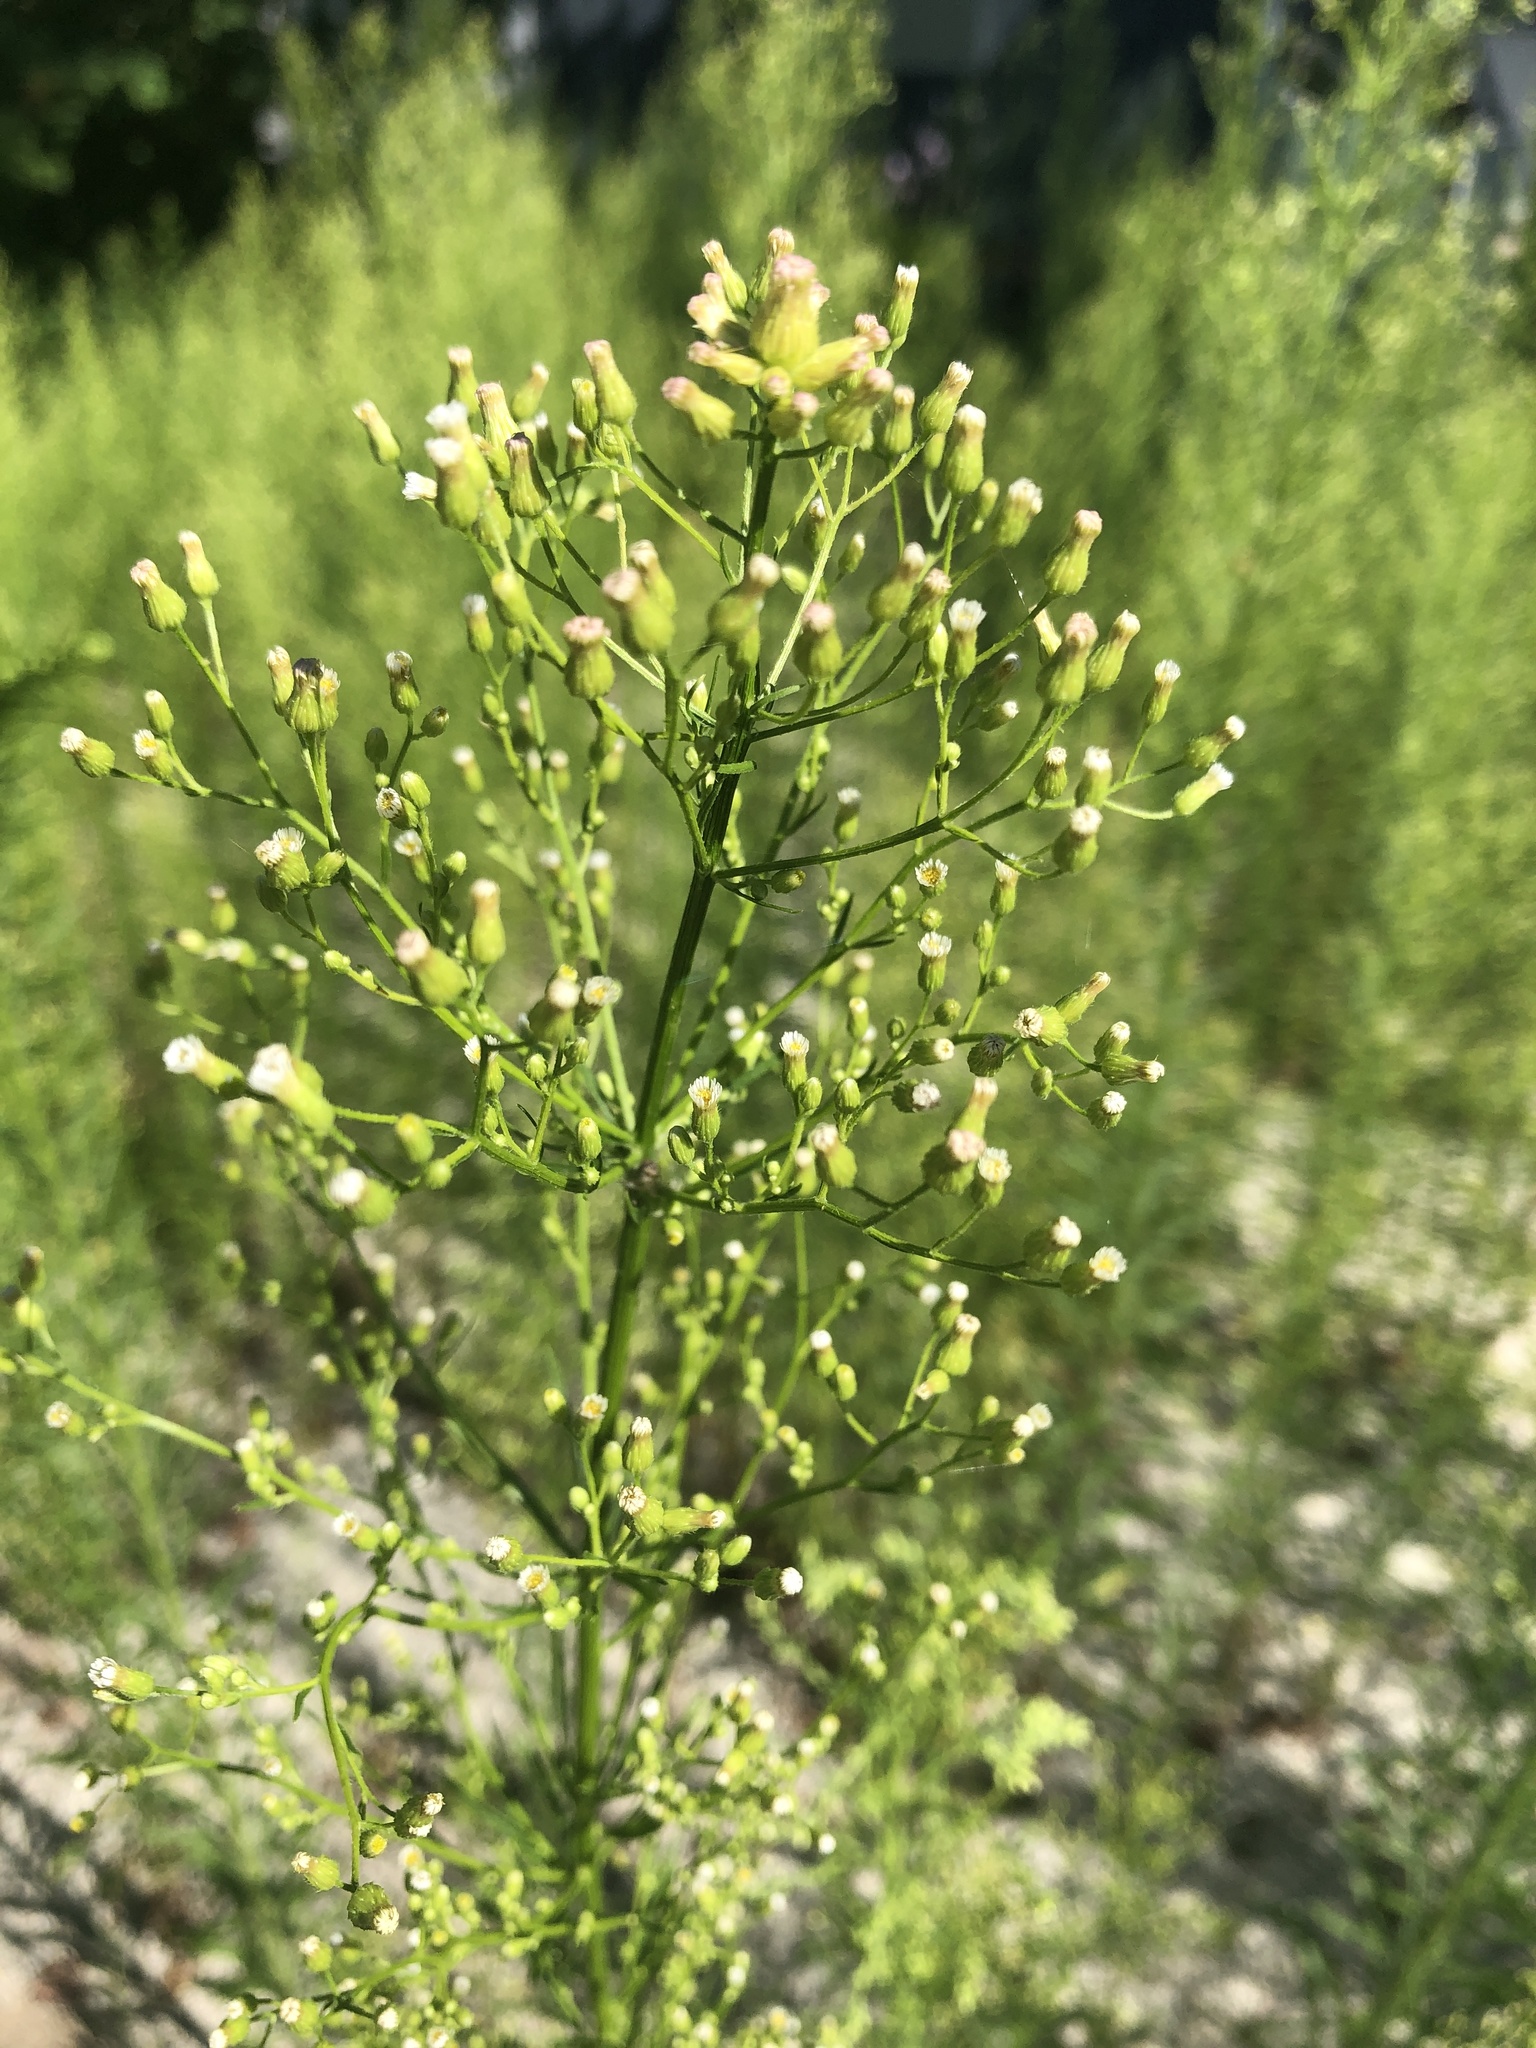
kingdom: Plantae
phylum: Tracheophyta
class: Magnoliopsida
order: Asterales
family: Asteraceae
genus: Erigeron
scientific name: Erigeron canadensis
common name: Canadian fleabane
